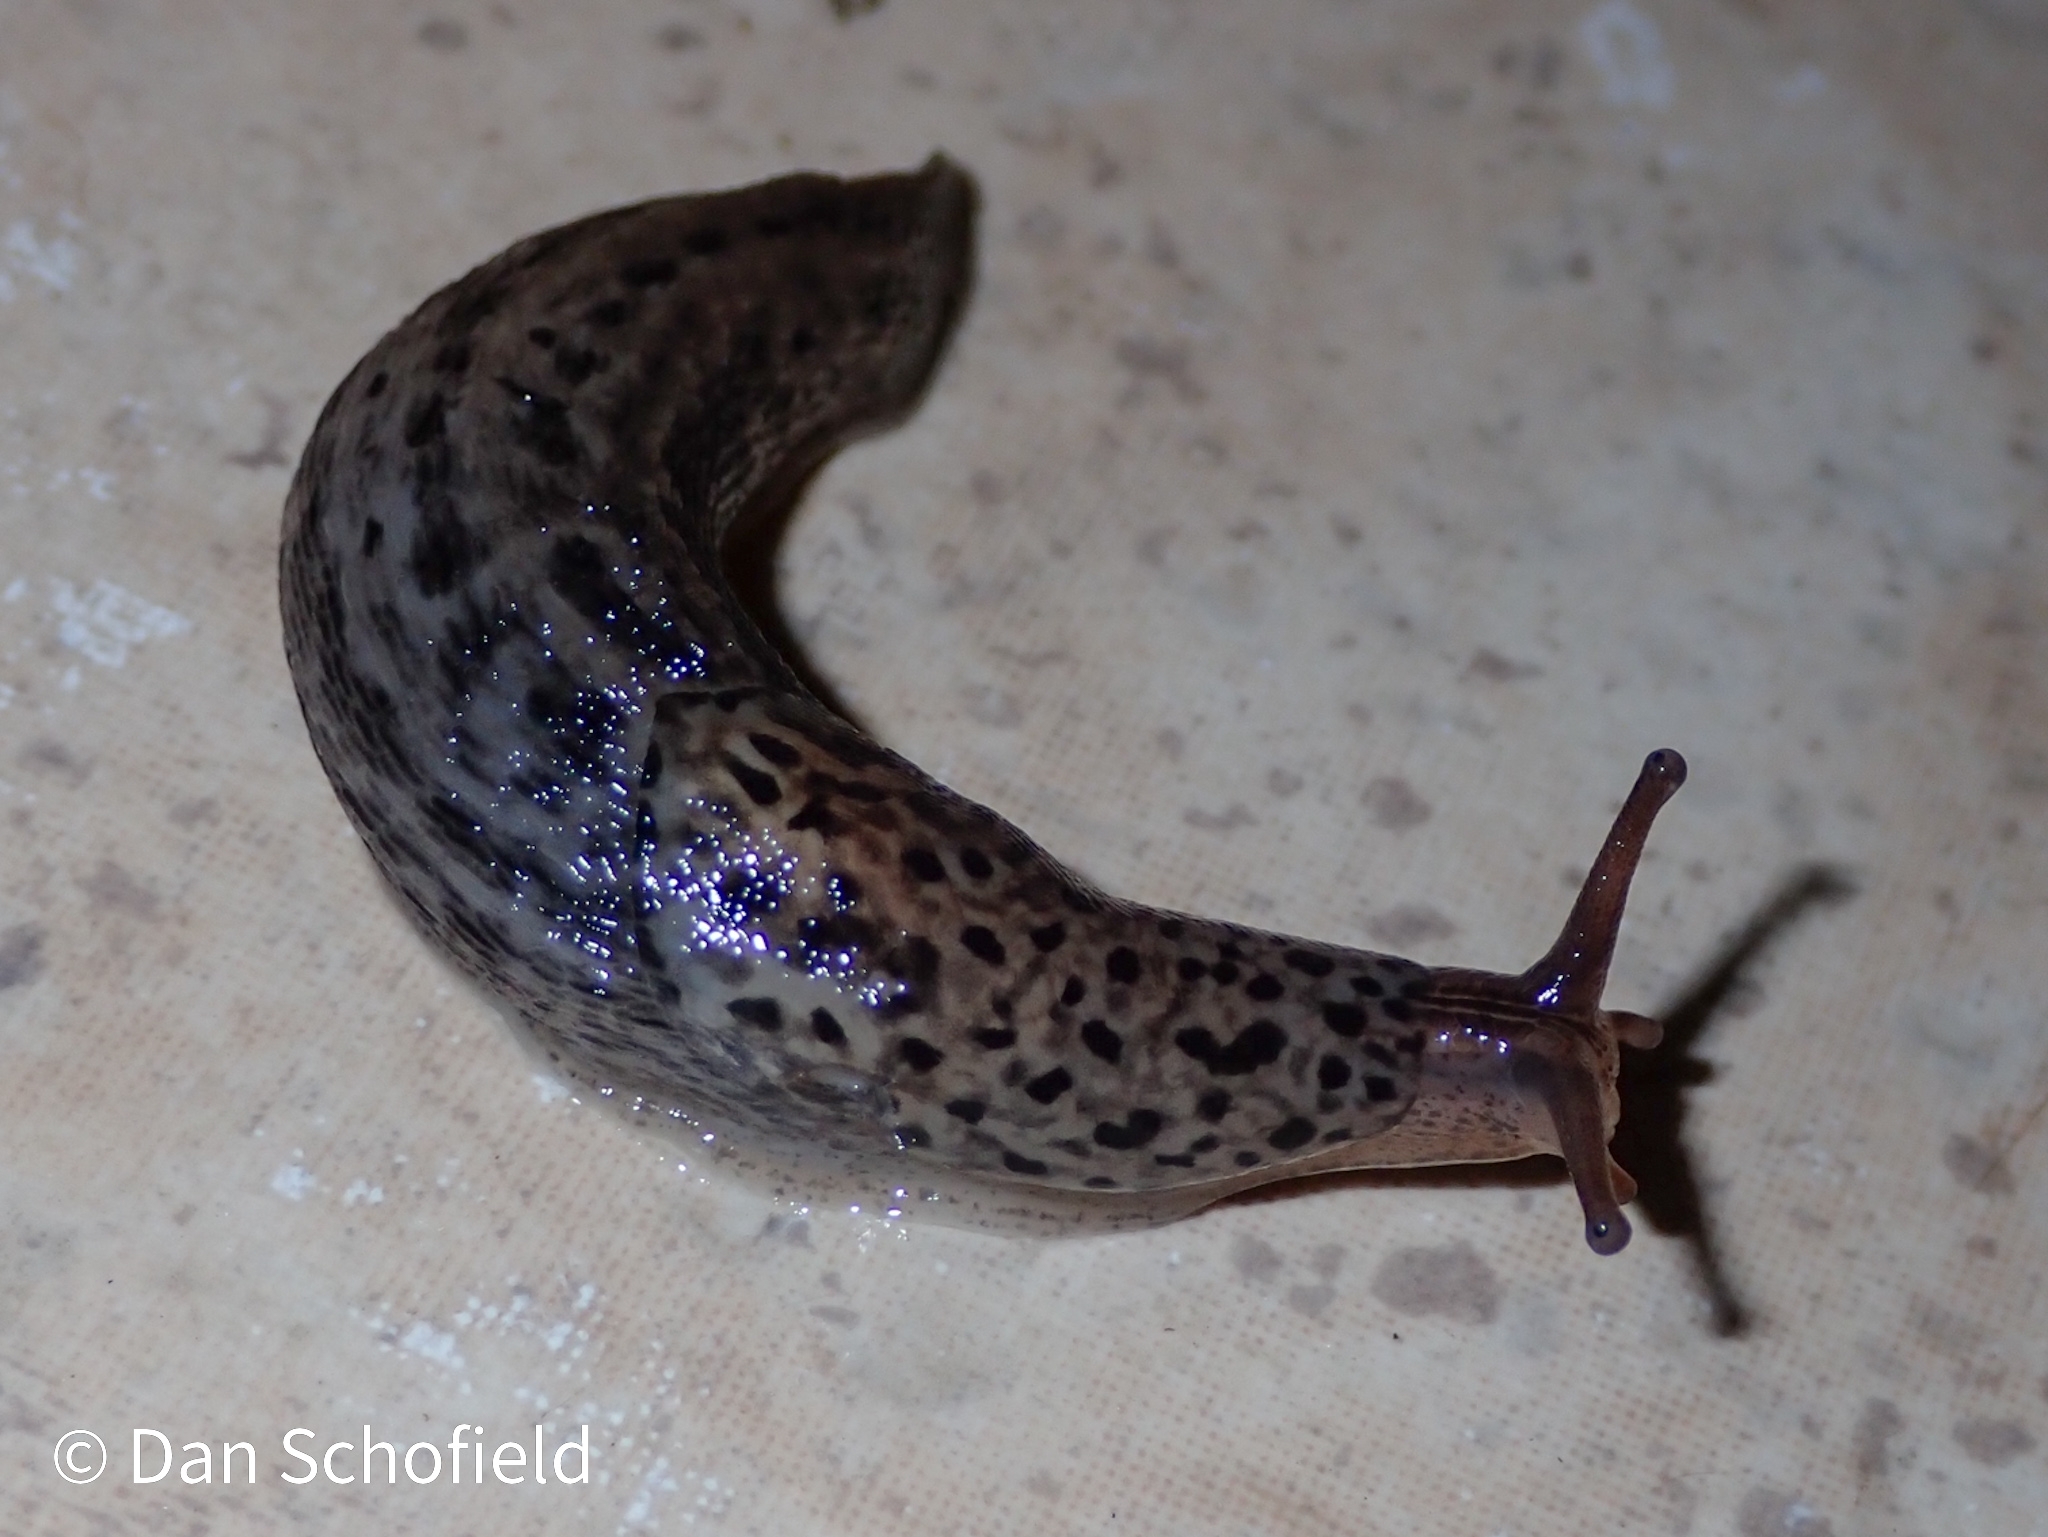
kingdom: Animalia
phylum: Mollusca
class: Gastropoda
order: Stylommatophora
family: Limacidae
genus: Limax
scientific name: Limax maximus
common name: Great grey slug
